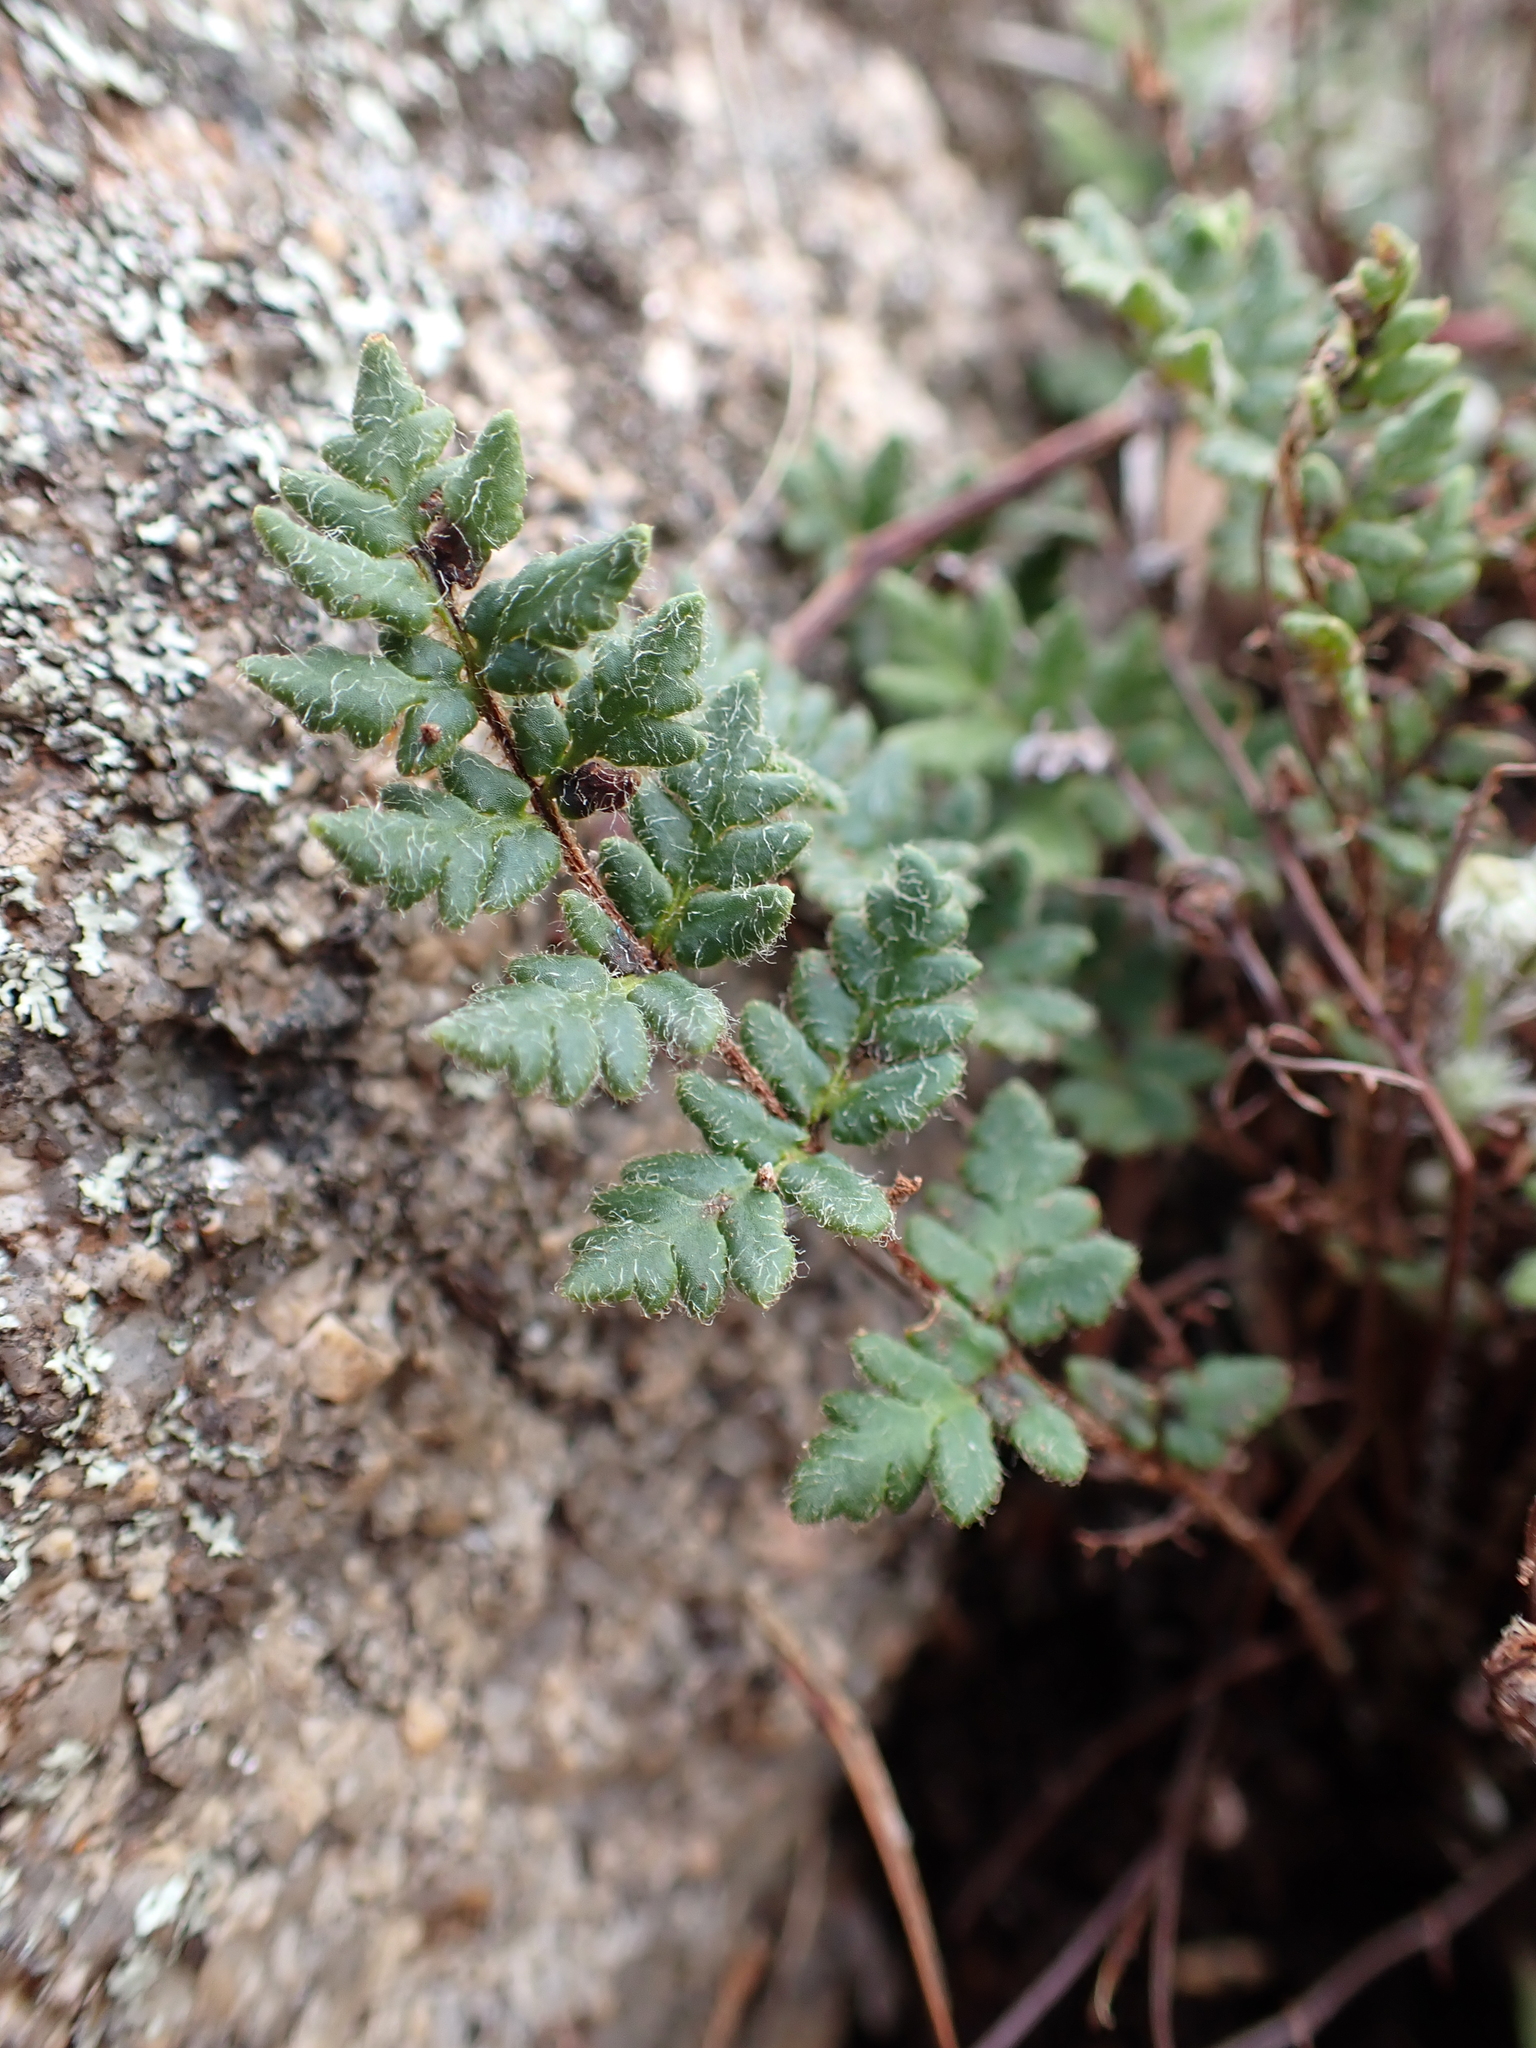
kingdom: Plantae
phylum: Tracheophyta
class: Polypodiopsida
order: Polypodiales
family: Pteridaceae
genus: Cheilanthes
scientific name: Cheilanthes distans
